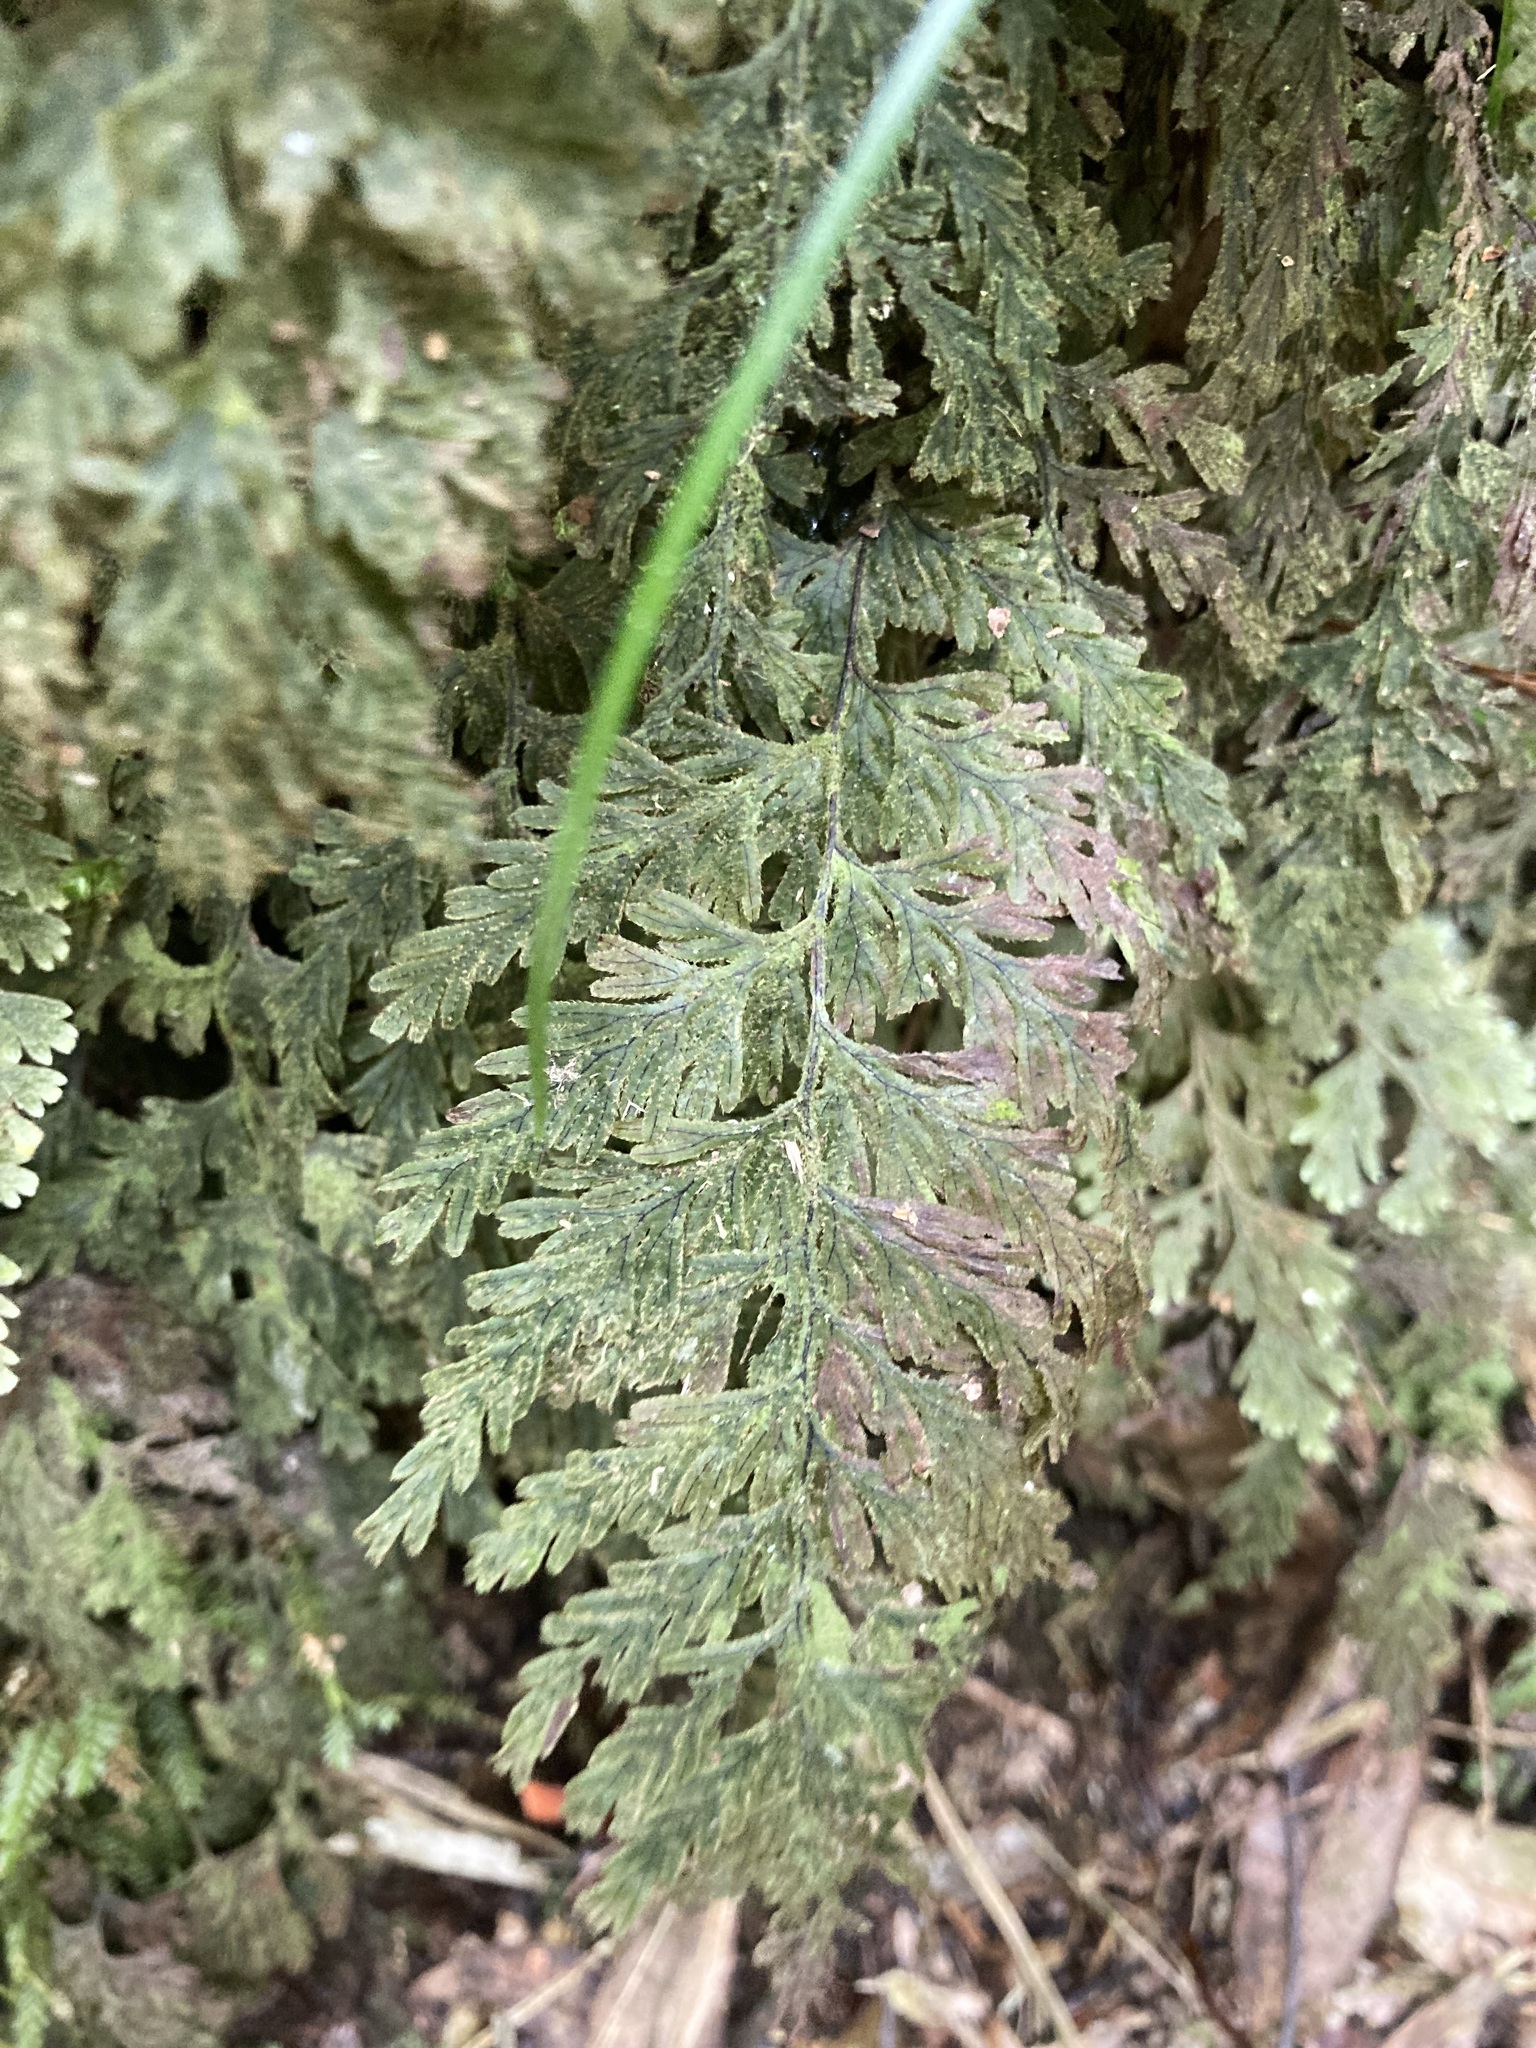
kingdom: Plantae
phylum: Tracheophyta
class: Polypodiopsida
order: Hymenophyllales
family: Hymenophyllaceae
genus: Hymenophyllum
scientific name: Hymenophyllum frankliniae
